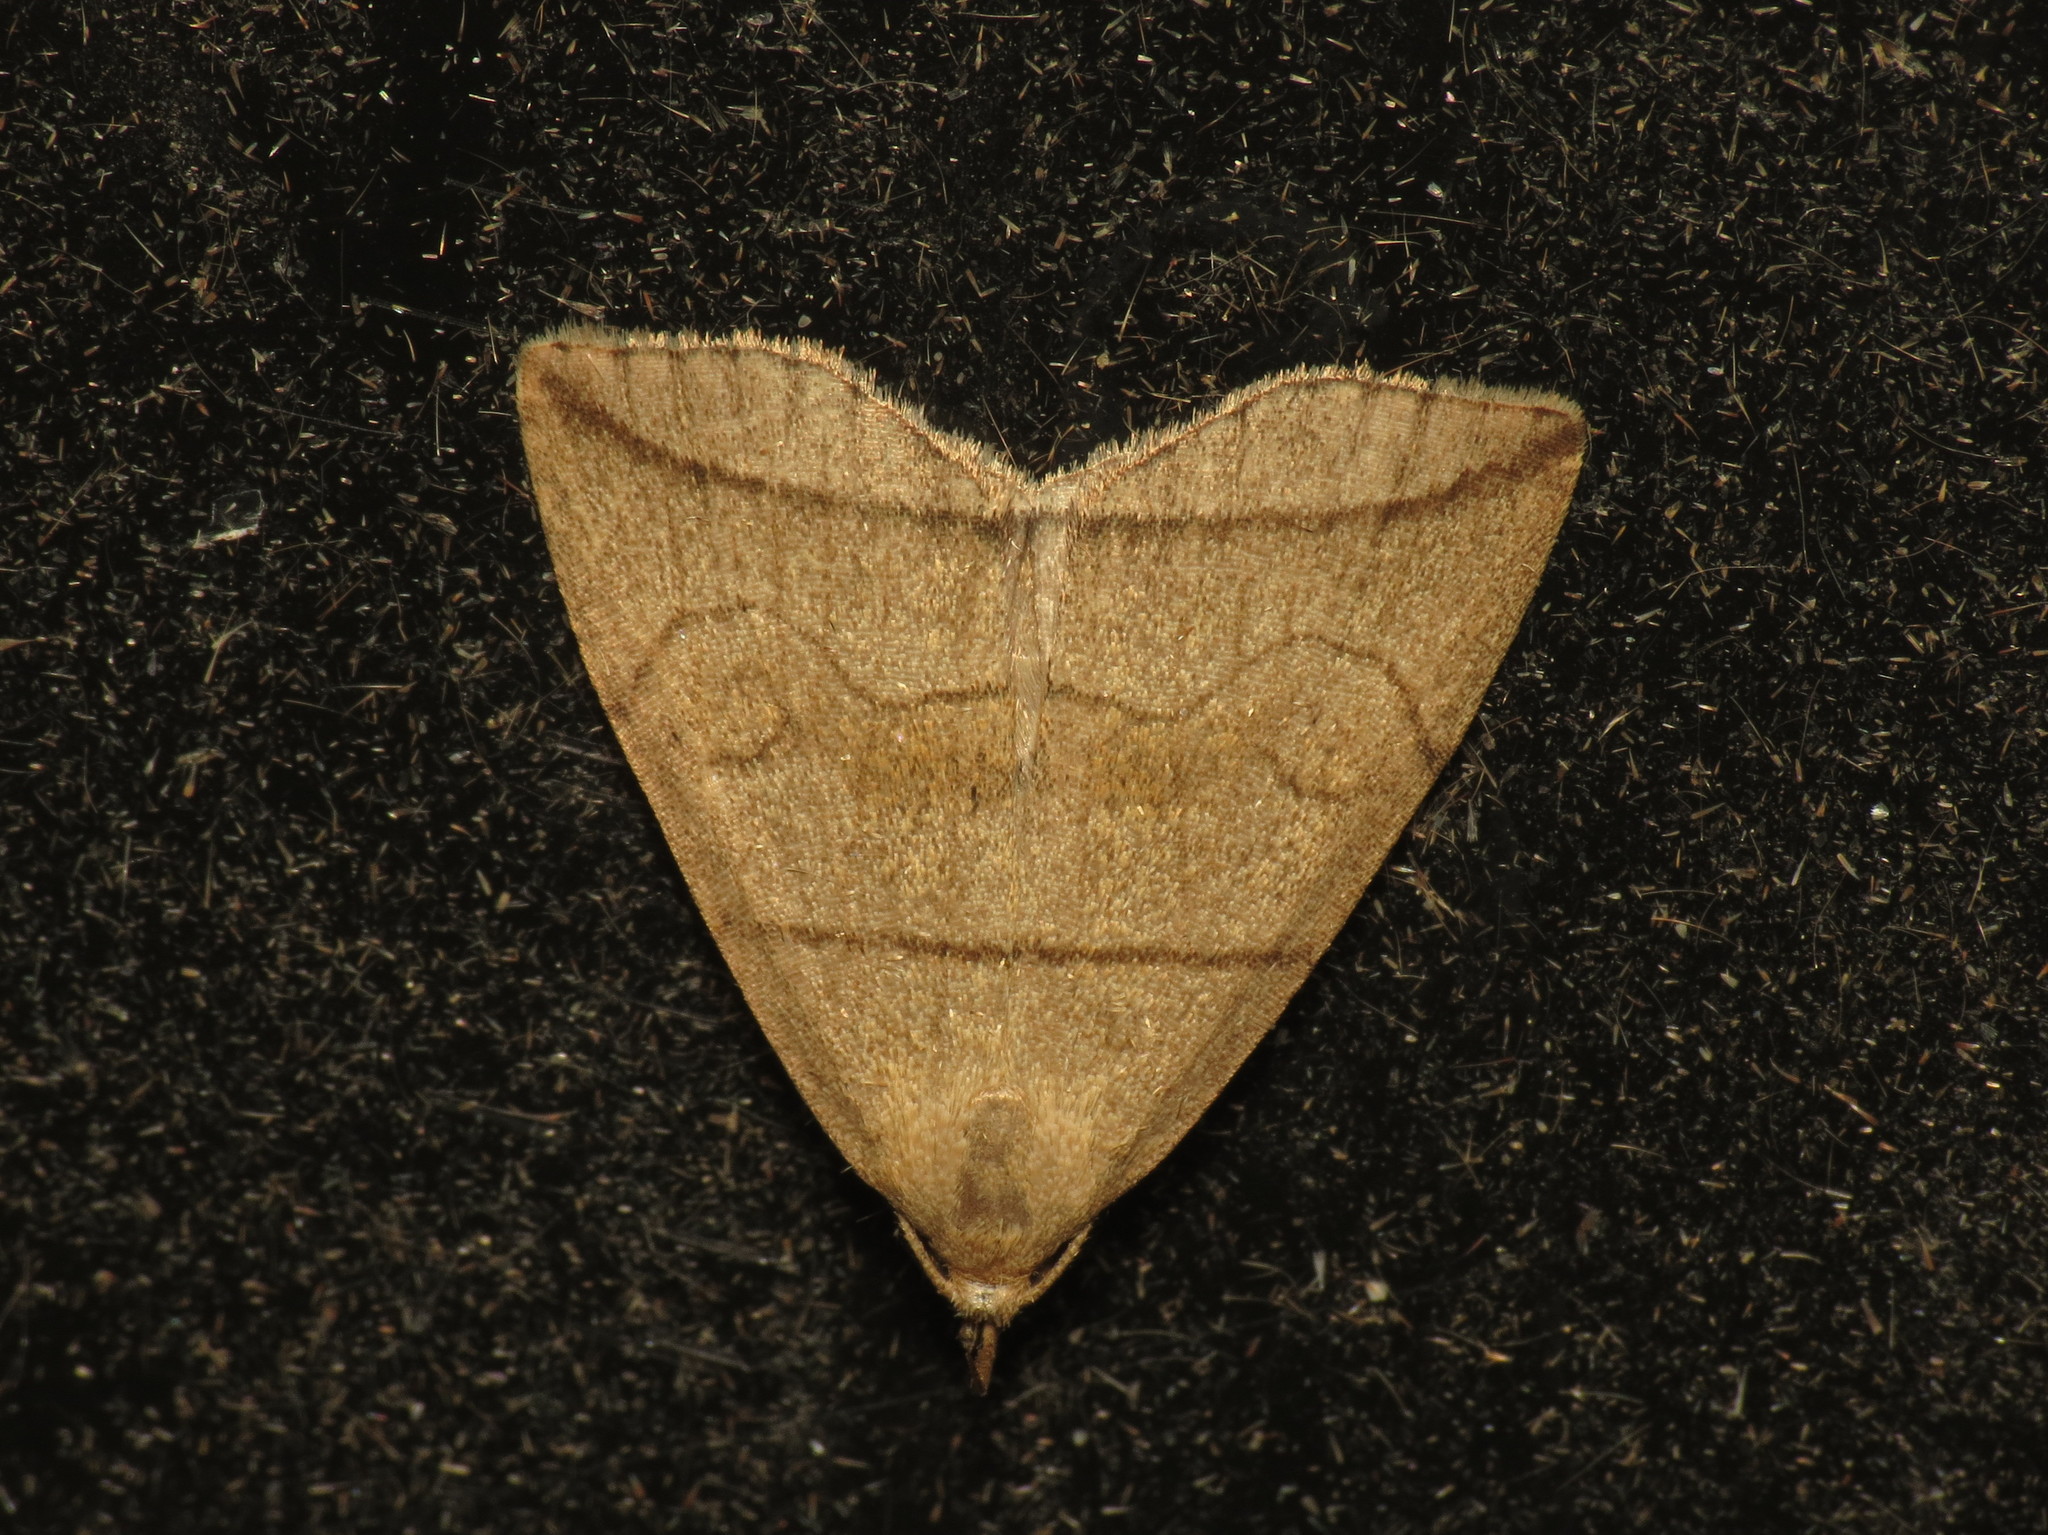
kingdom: Animalia
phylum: Arthropoda
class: Insecta
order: Lepidoptera
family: Erebidae
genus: Herminia
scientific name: Herminia grisealis
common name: Small fan-foot
